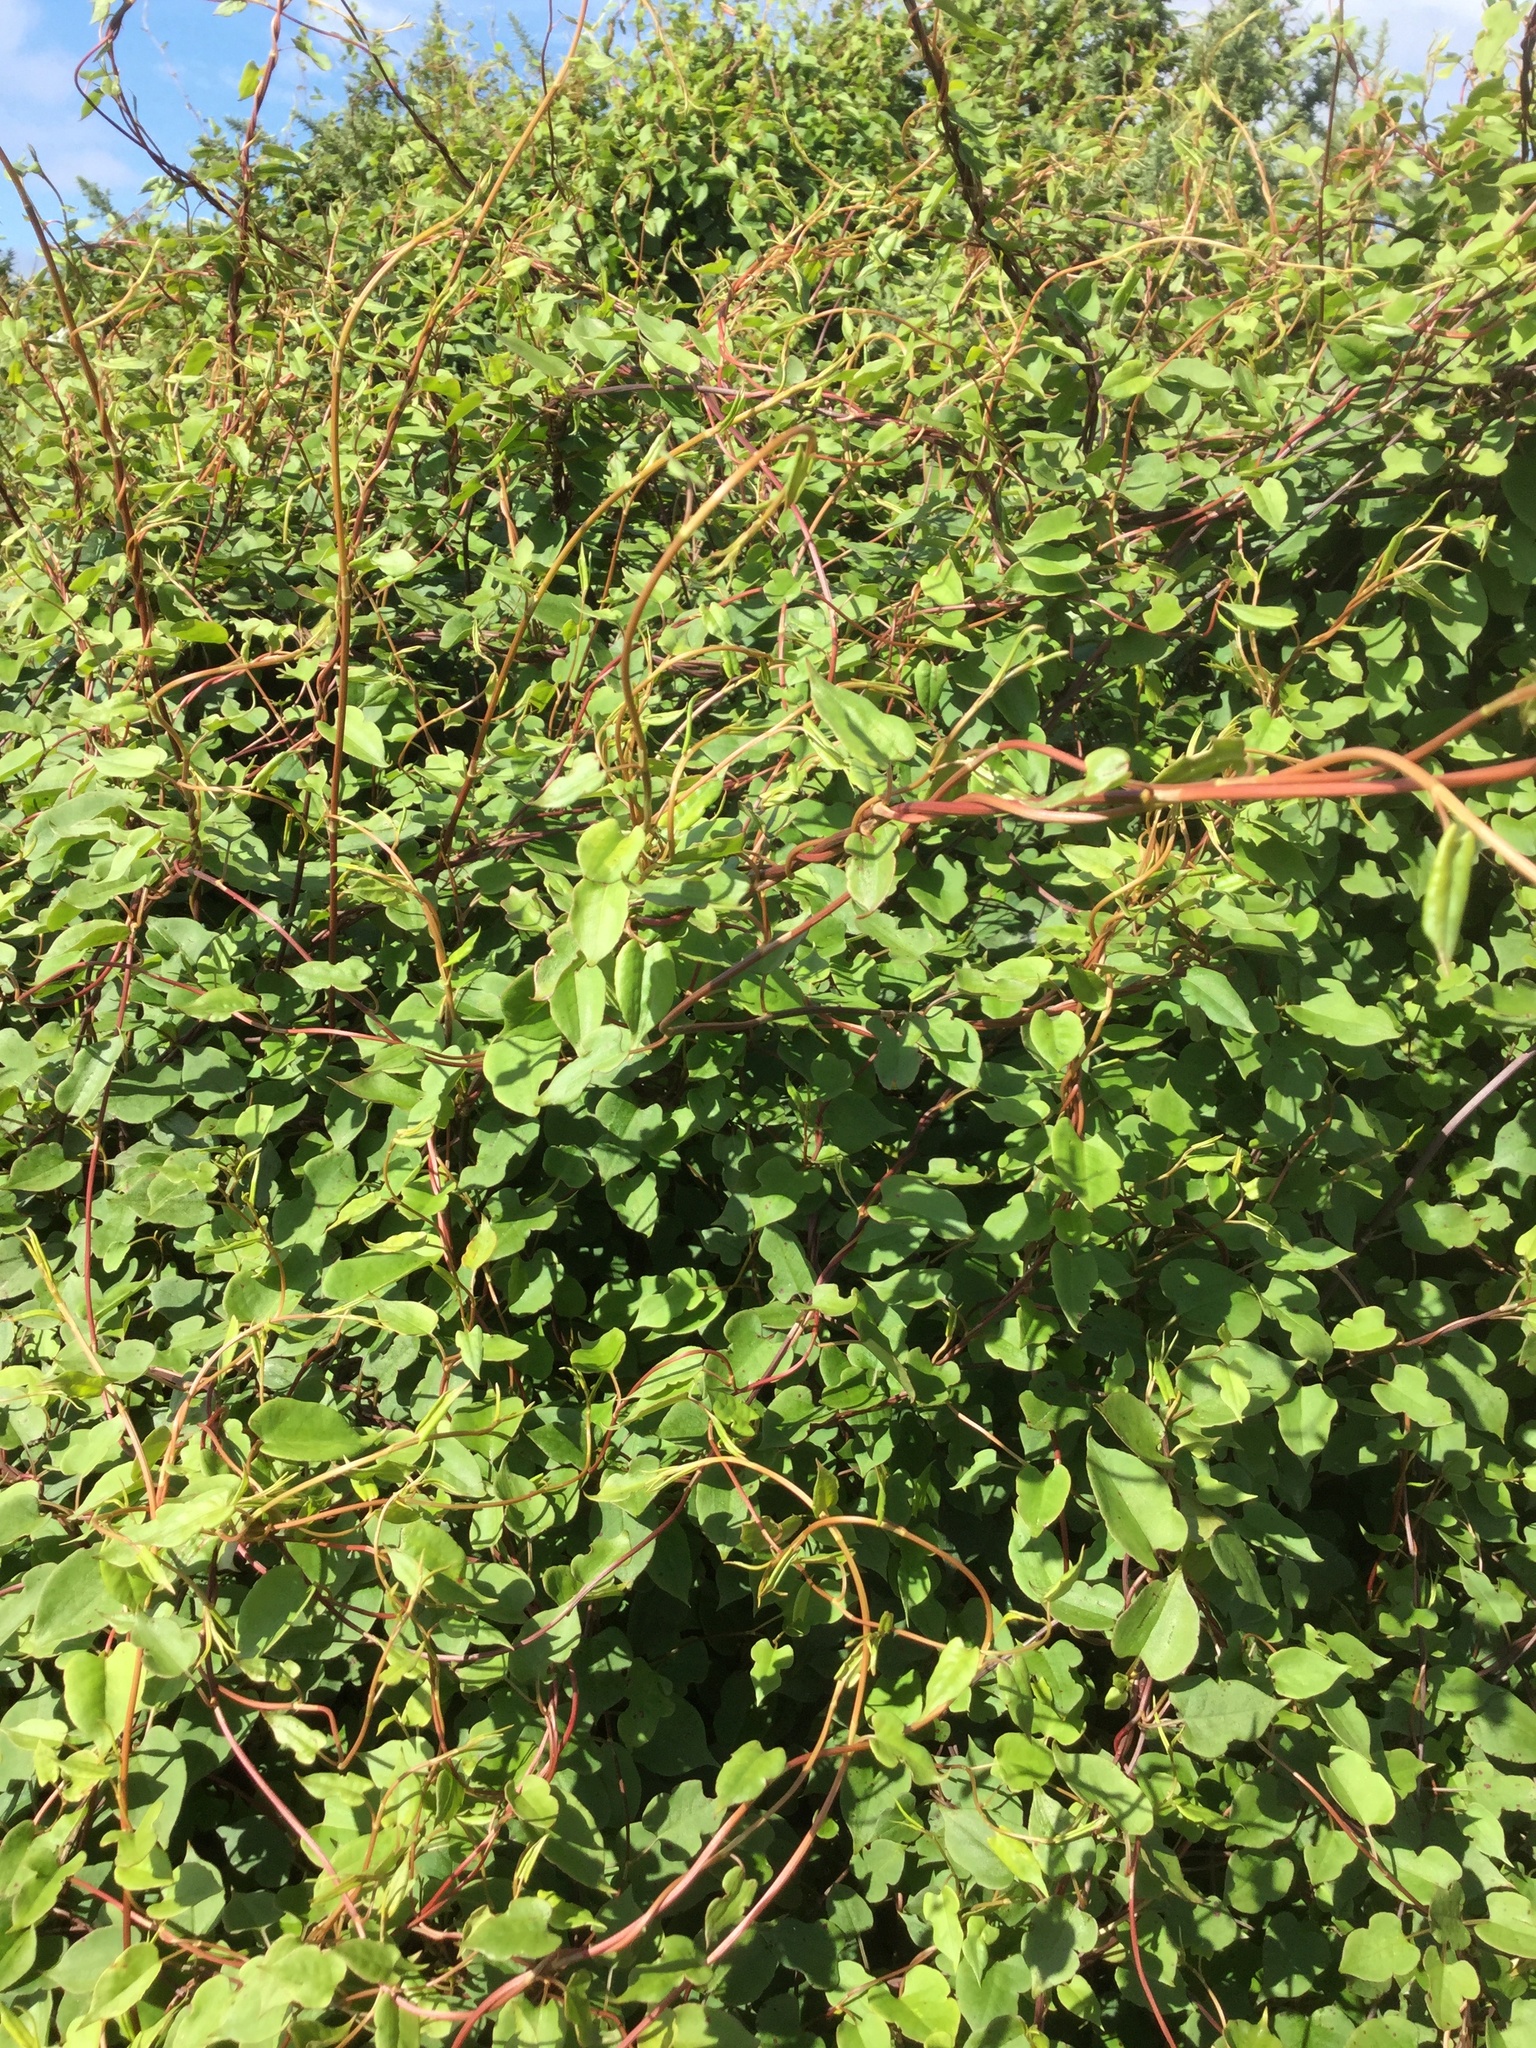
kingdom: Plantae
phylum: Tracheophyta
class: Magnoliopsida
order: Caryophyllales
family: Polygonaceae
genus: Muehlenbeckia
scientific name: Muehlenbeckia australis
